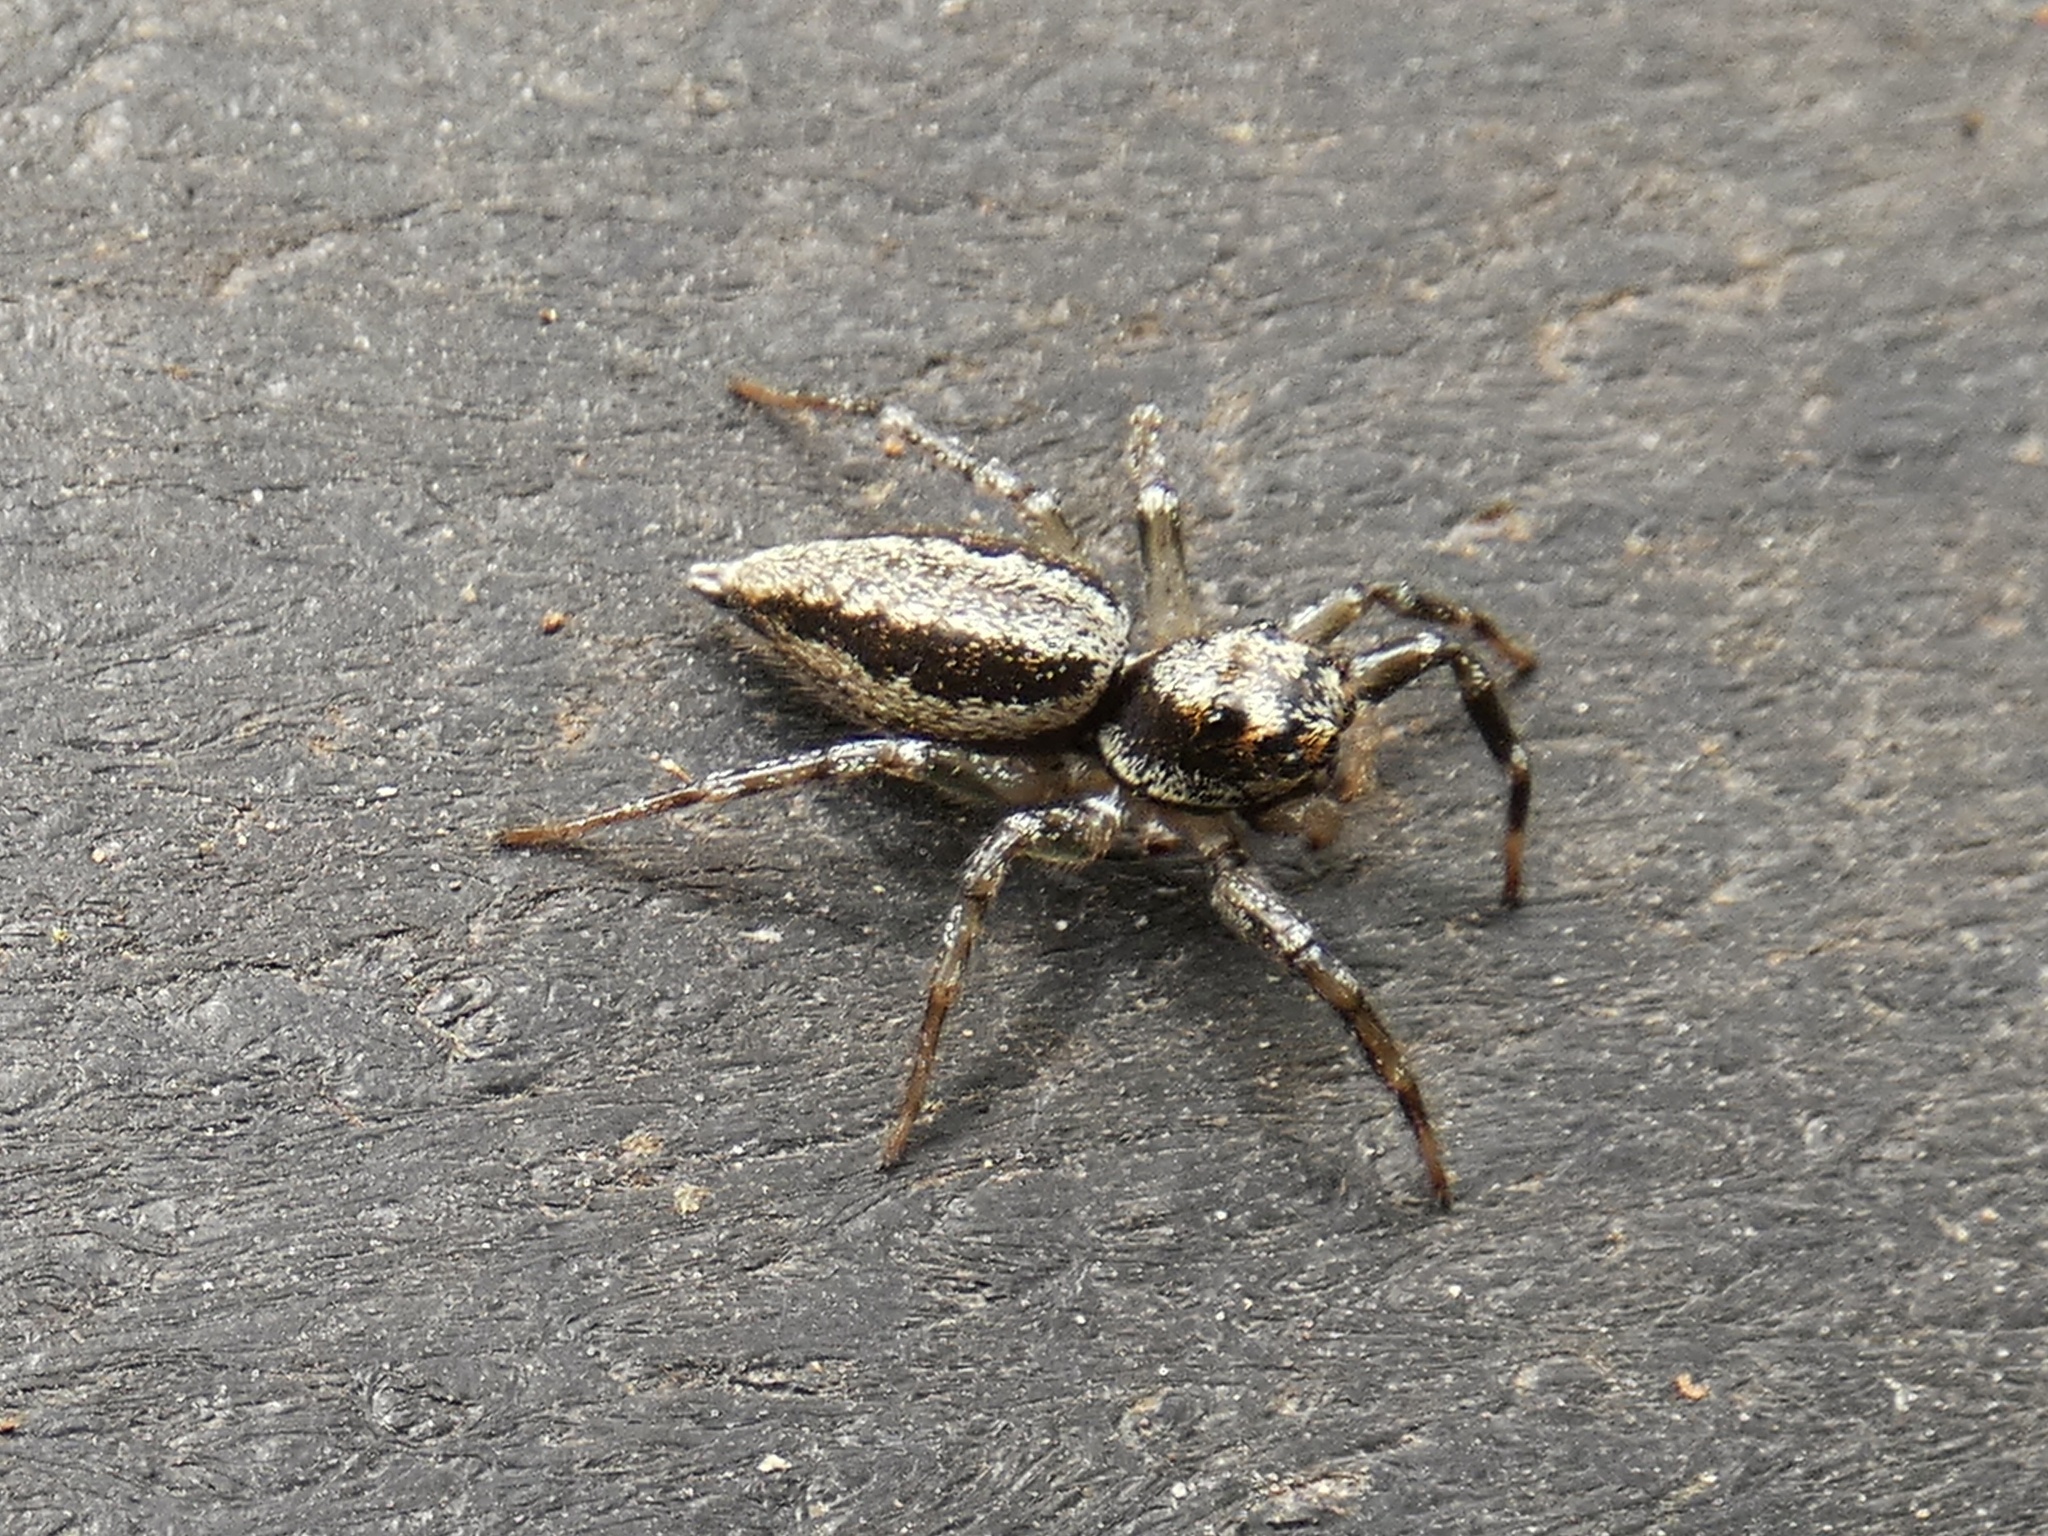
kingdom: Animalia
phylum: Arthropoda
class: Arachnida
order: Araneae
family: Salticidae
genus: Zenodorus
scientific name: Zenodorus swiftorum
